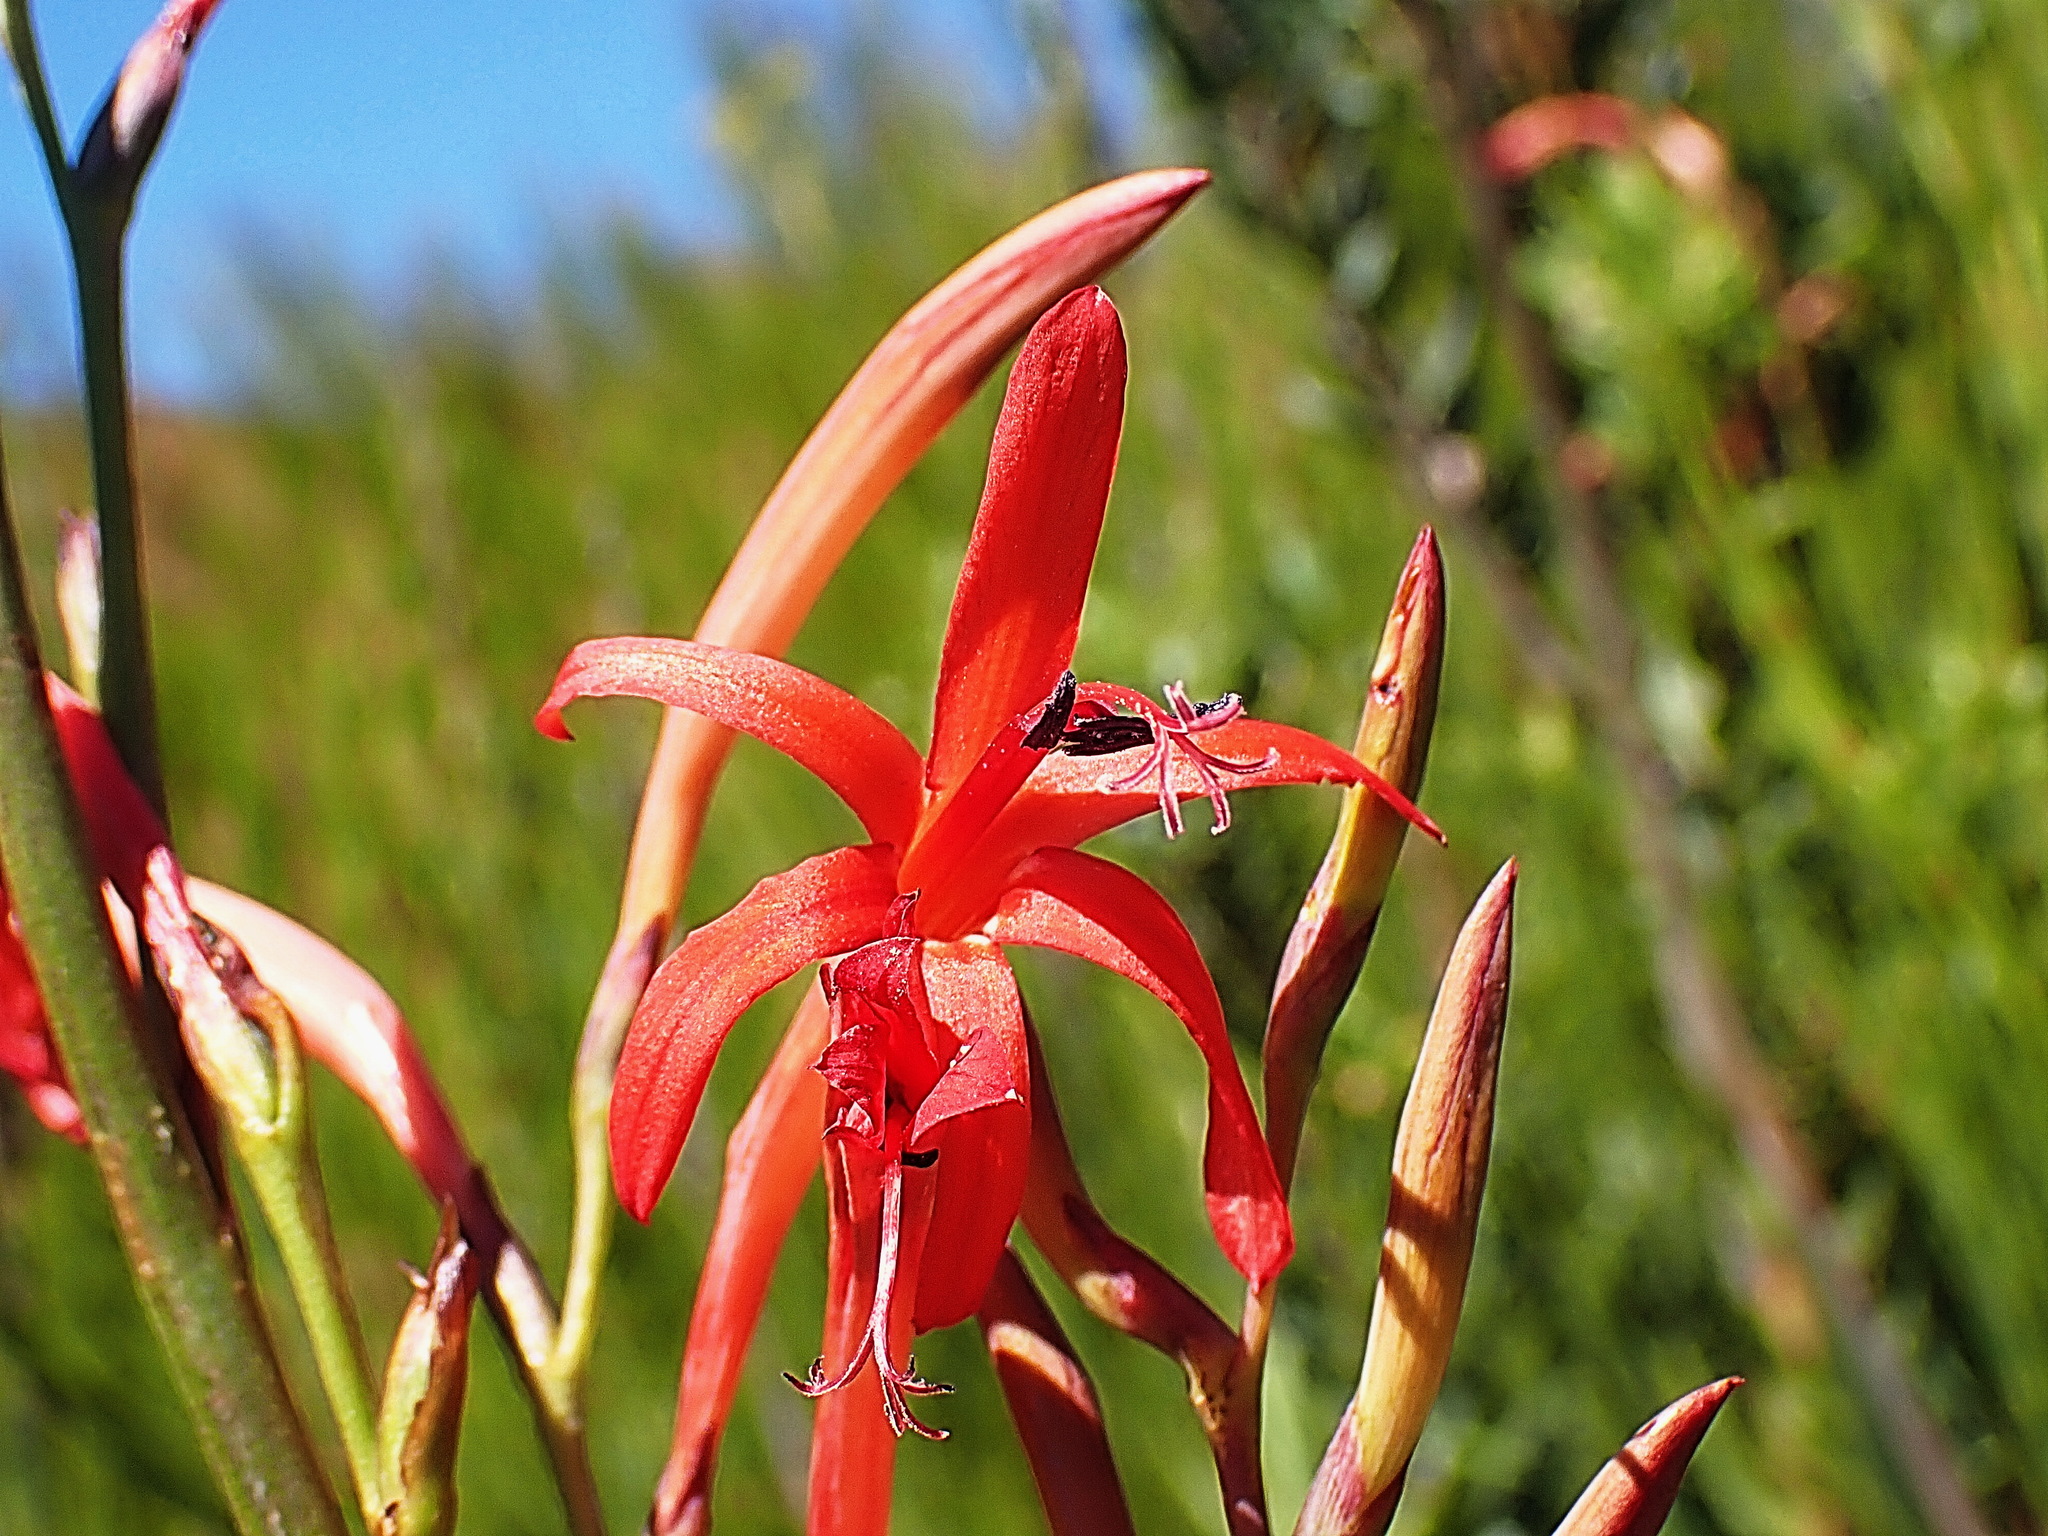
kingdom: Plantae
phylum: Tracheophyta
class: Liliopsida
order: Asparagales
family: Iridaceae
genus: Watsonia
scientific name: Watsonia angusta
